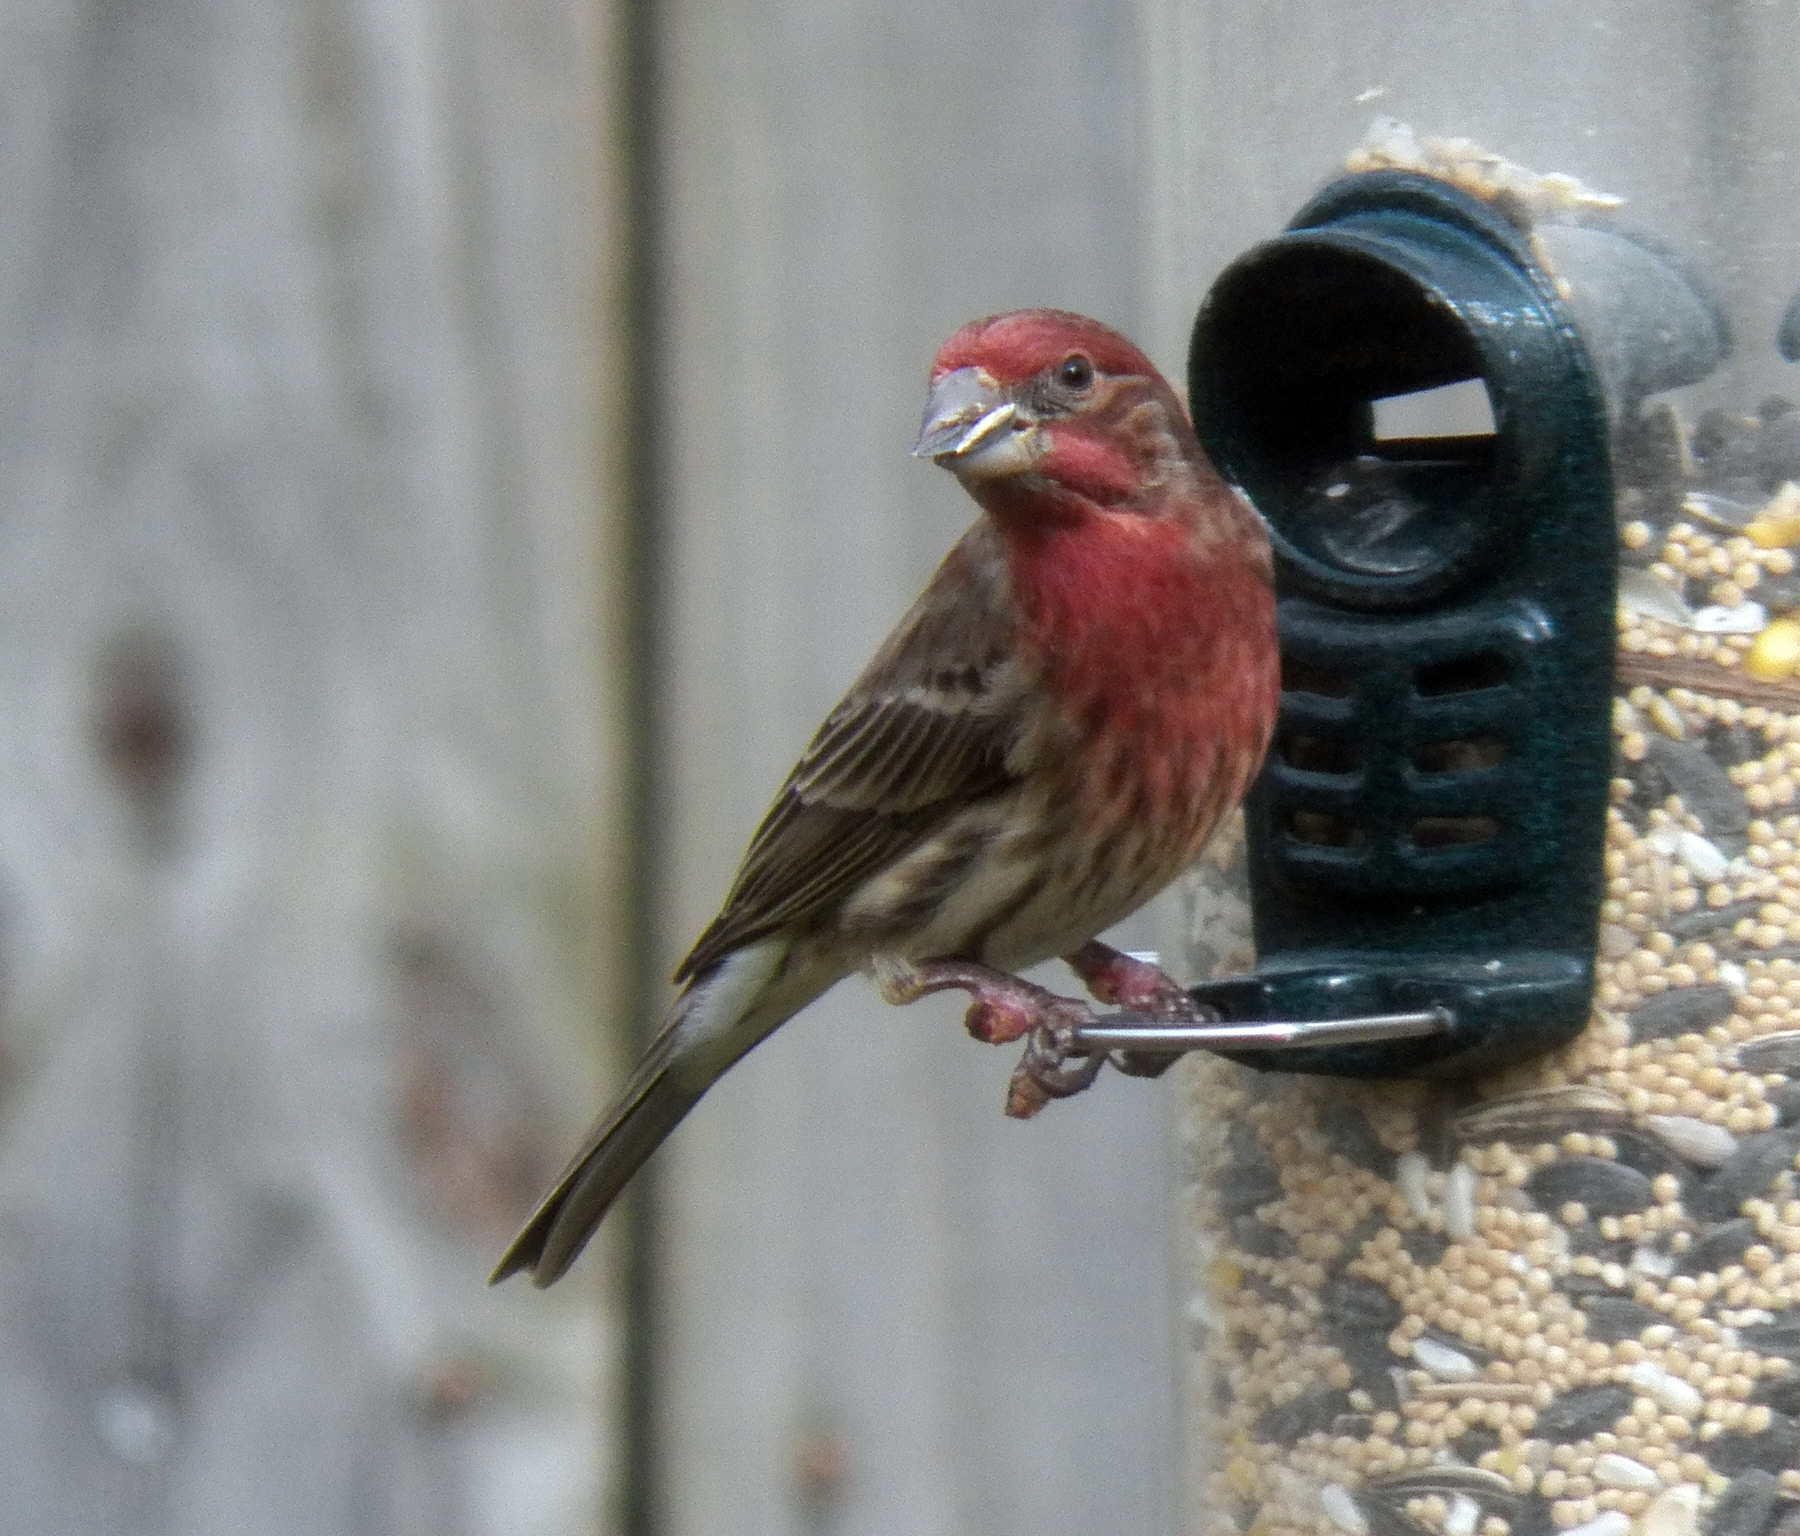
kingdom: Animalia
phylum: Chordata
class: Aves
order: Passeriformes
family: Fringillidae
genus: Haemorhous
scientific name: Haemorhous mexicanus
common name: House finch
